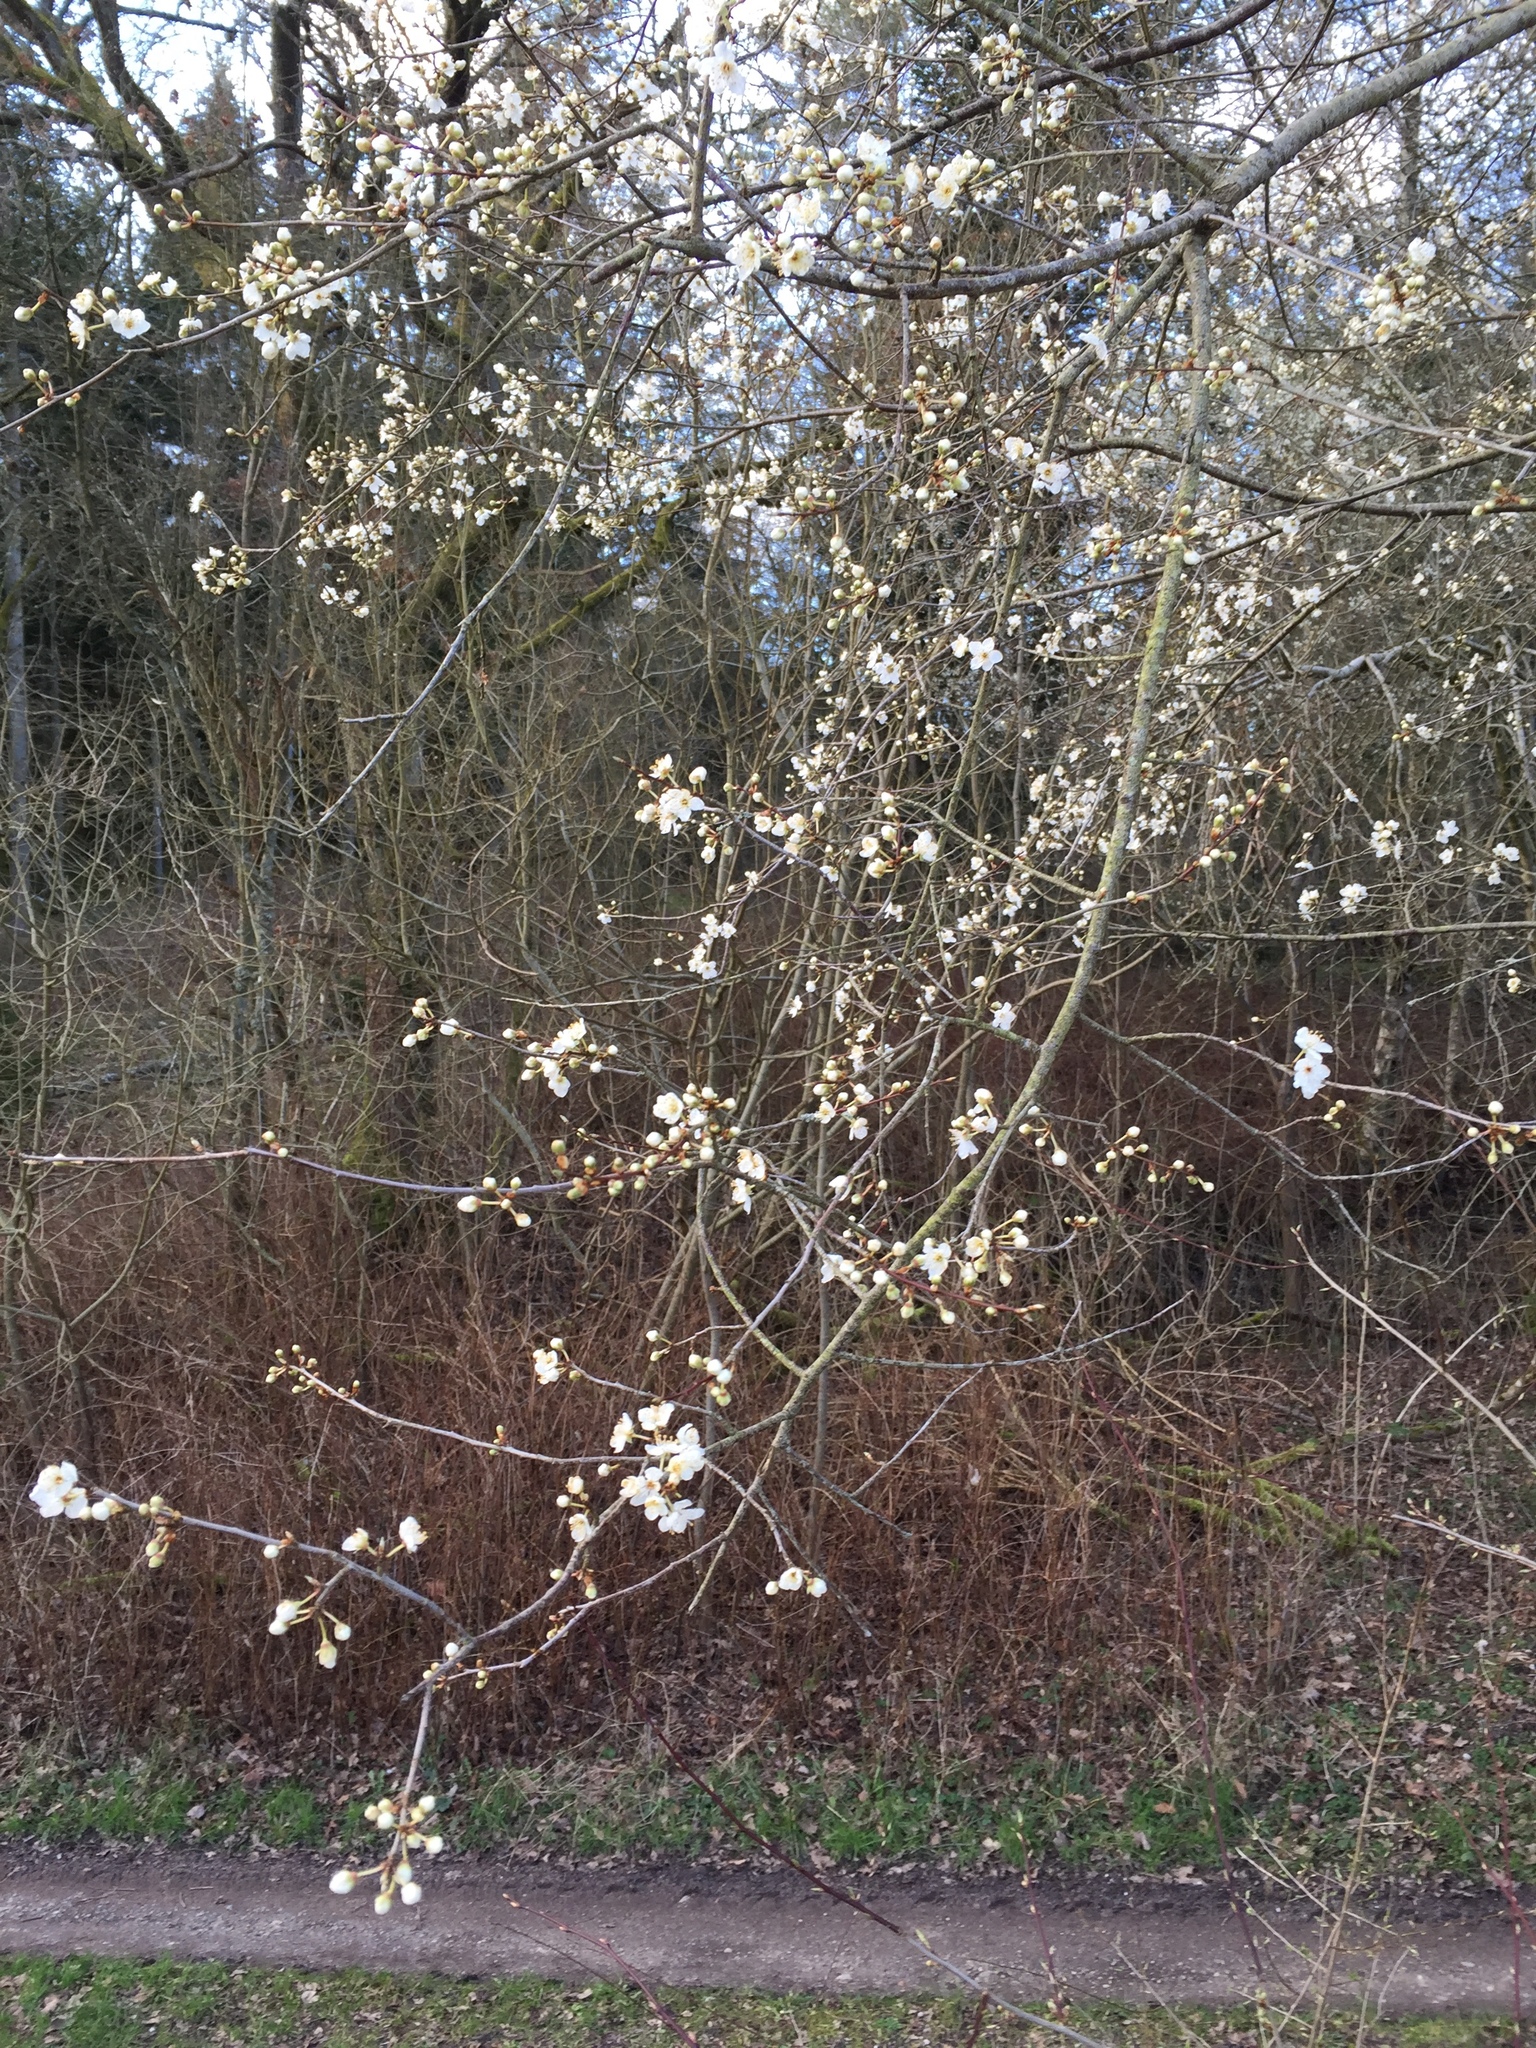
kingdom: Plantae
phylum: Tracheophyta
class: Magnoliopsida
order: Rosales
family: Rosaceae
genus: Prunus
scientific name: Prunus cerasifera
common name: Cherry plum
